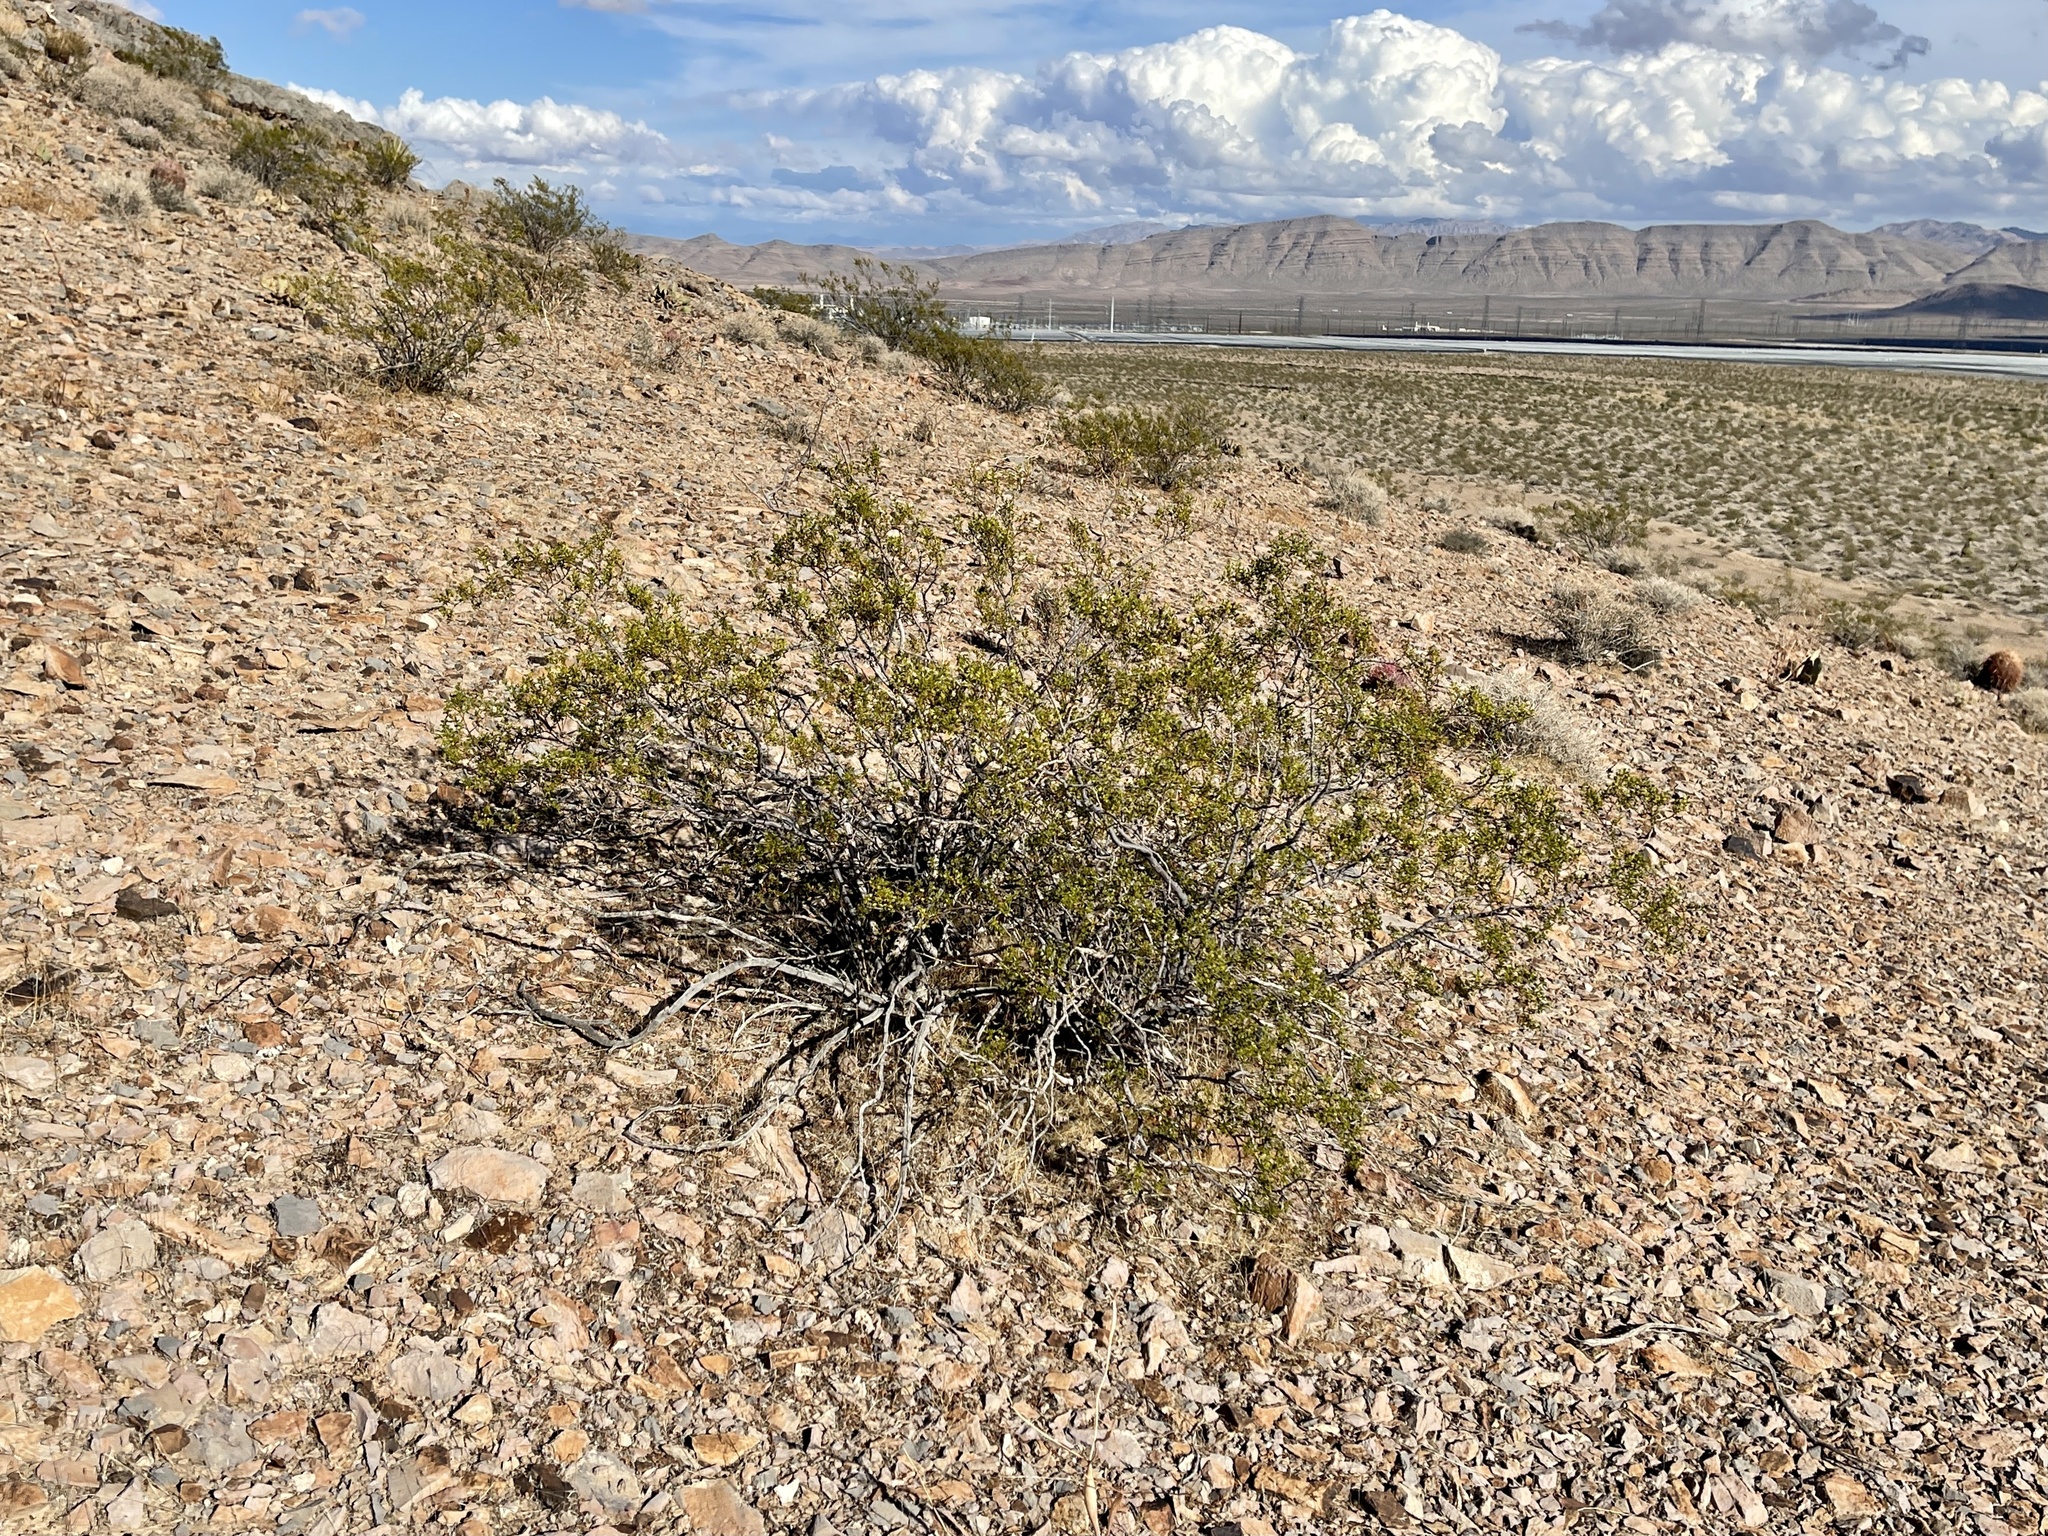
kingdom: Plantae
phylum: Tracheophyta
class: Magnoliopsida
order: Zygophyllales
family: Zygophyllaceae
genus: Larrea
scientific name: Larrea tridentata
